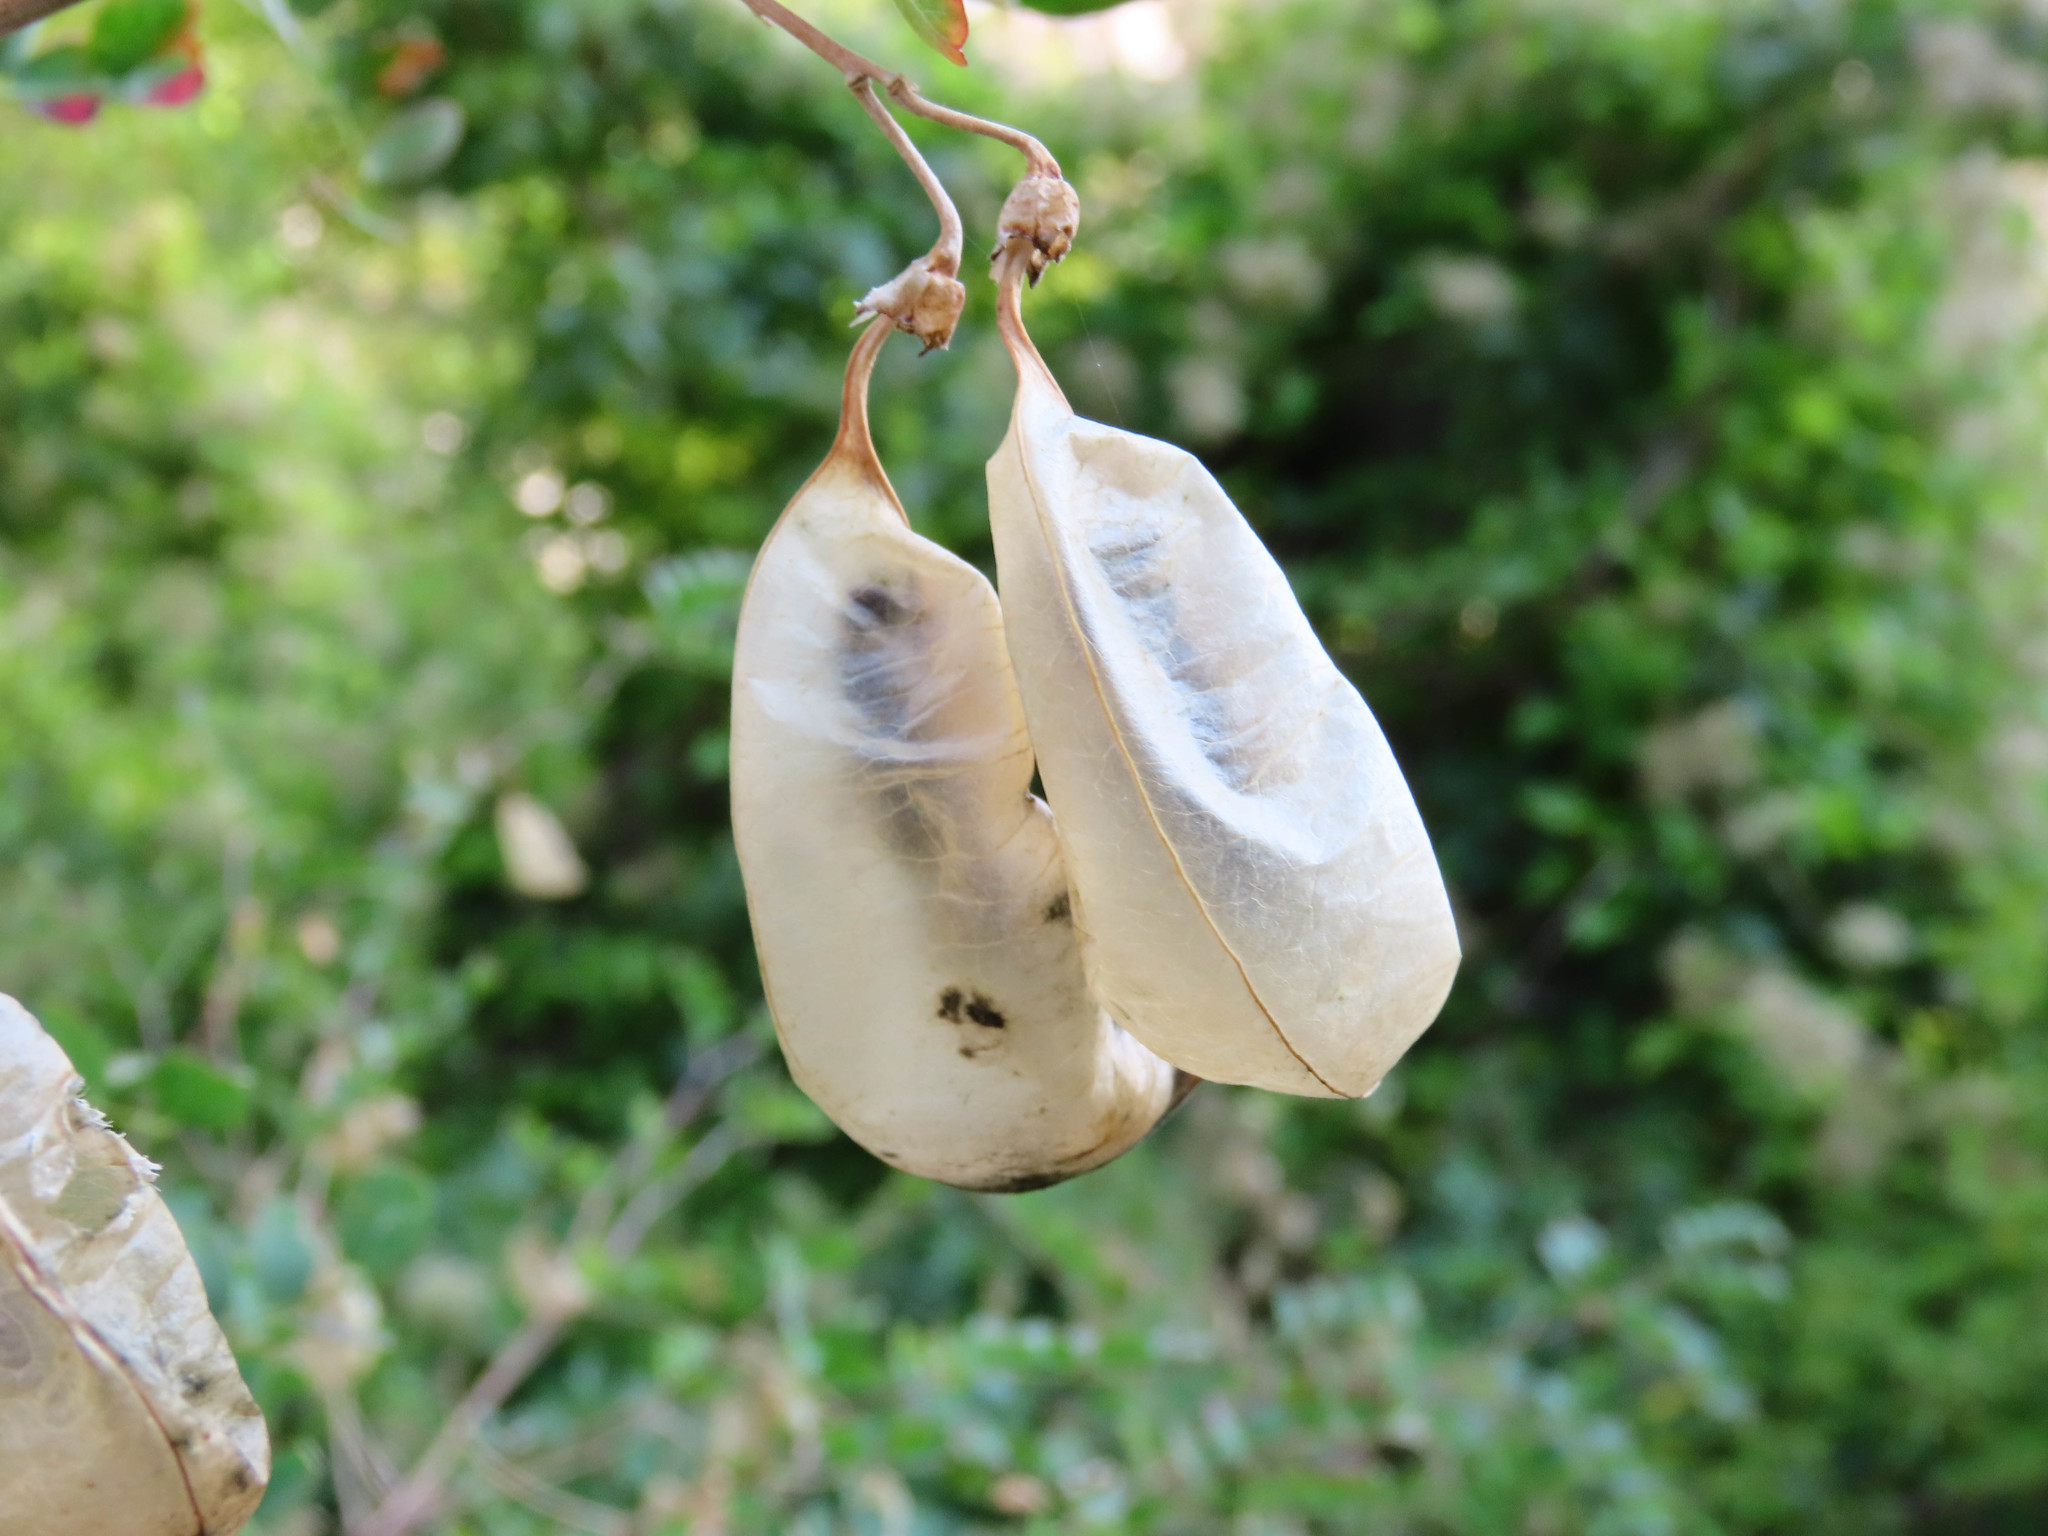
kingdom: Plantae
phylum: Tracheophyta
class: Magnoliopsida
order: Fabales
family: Fabaceae
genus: Colutea
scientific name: Colutea arborescens
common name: Bladder-senna
